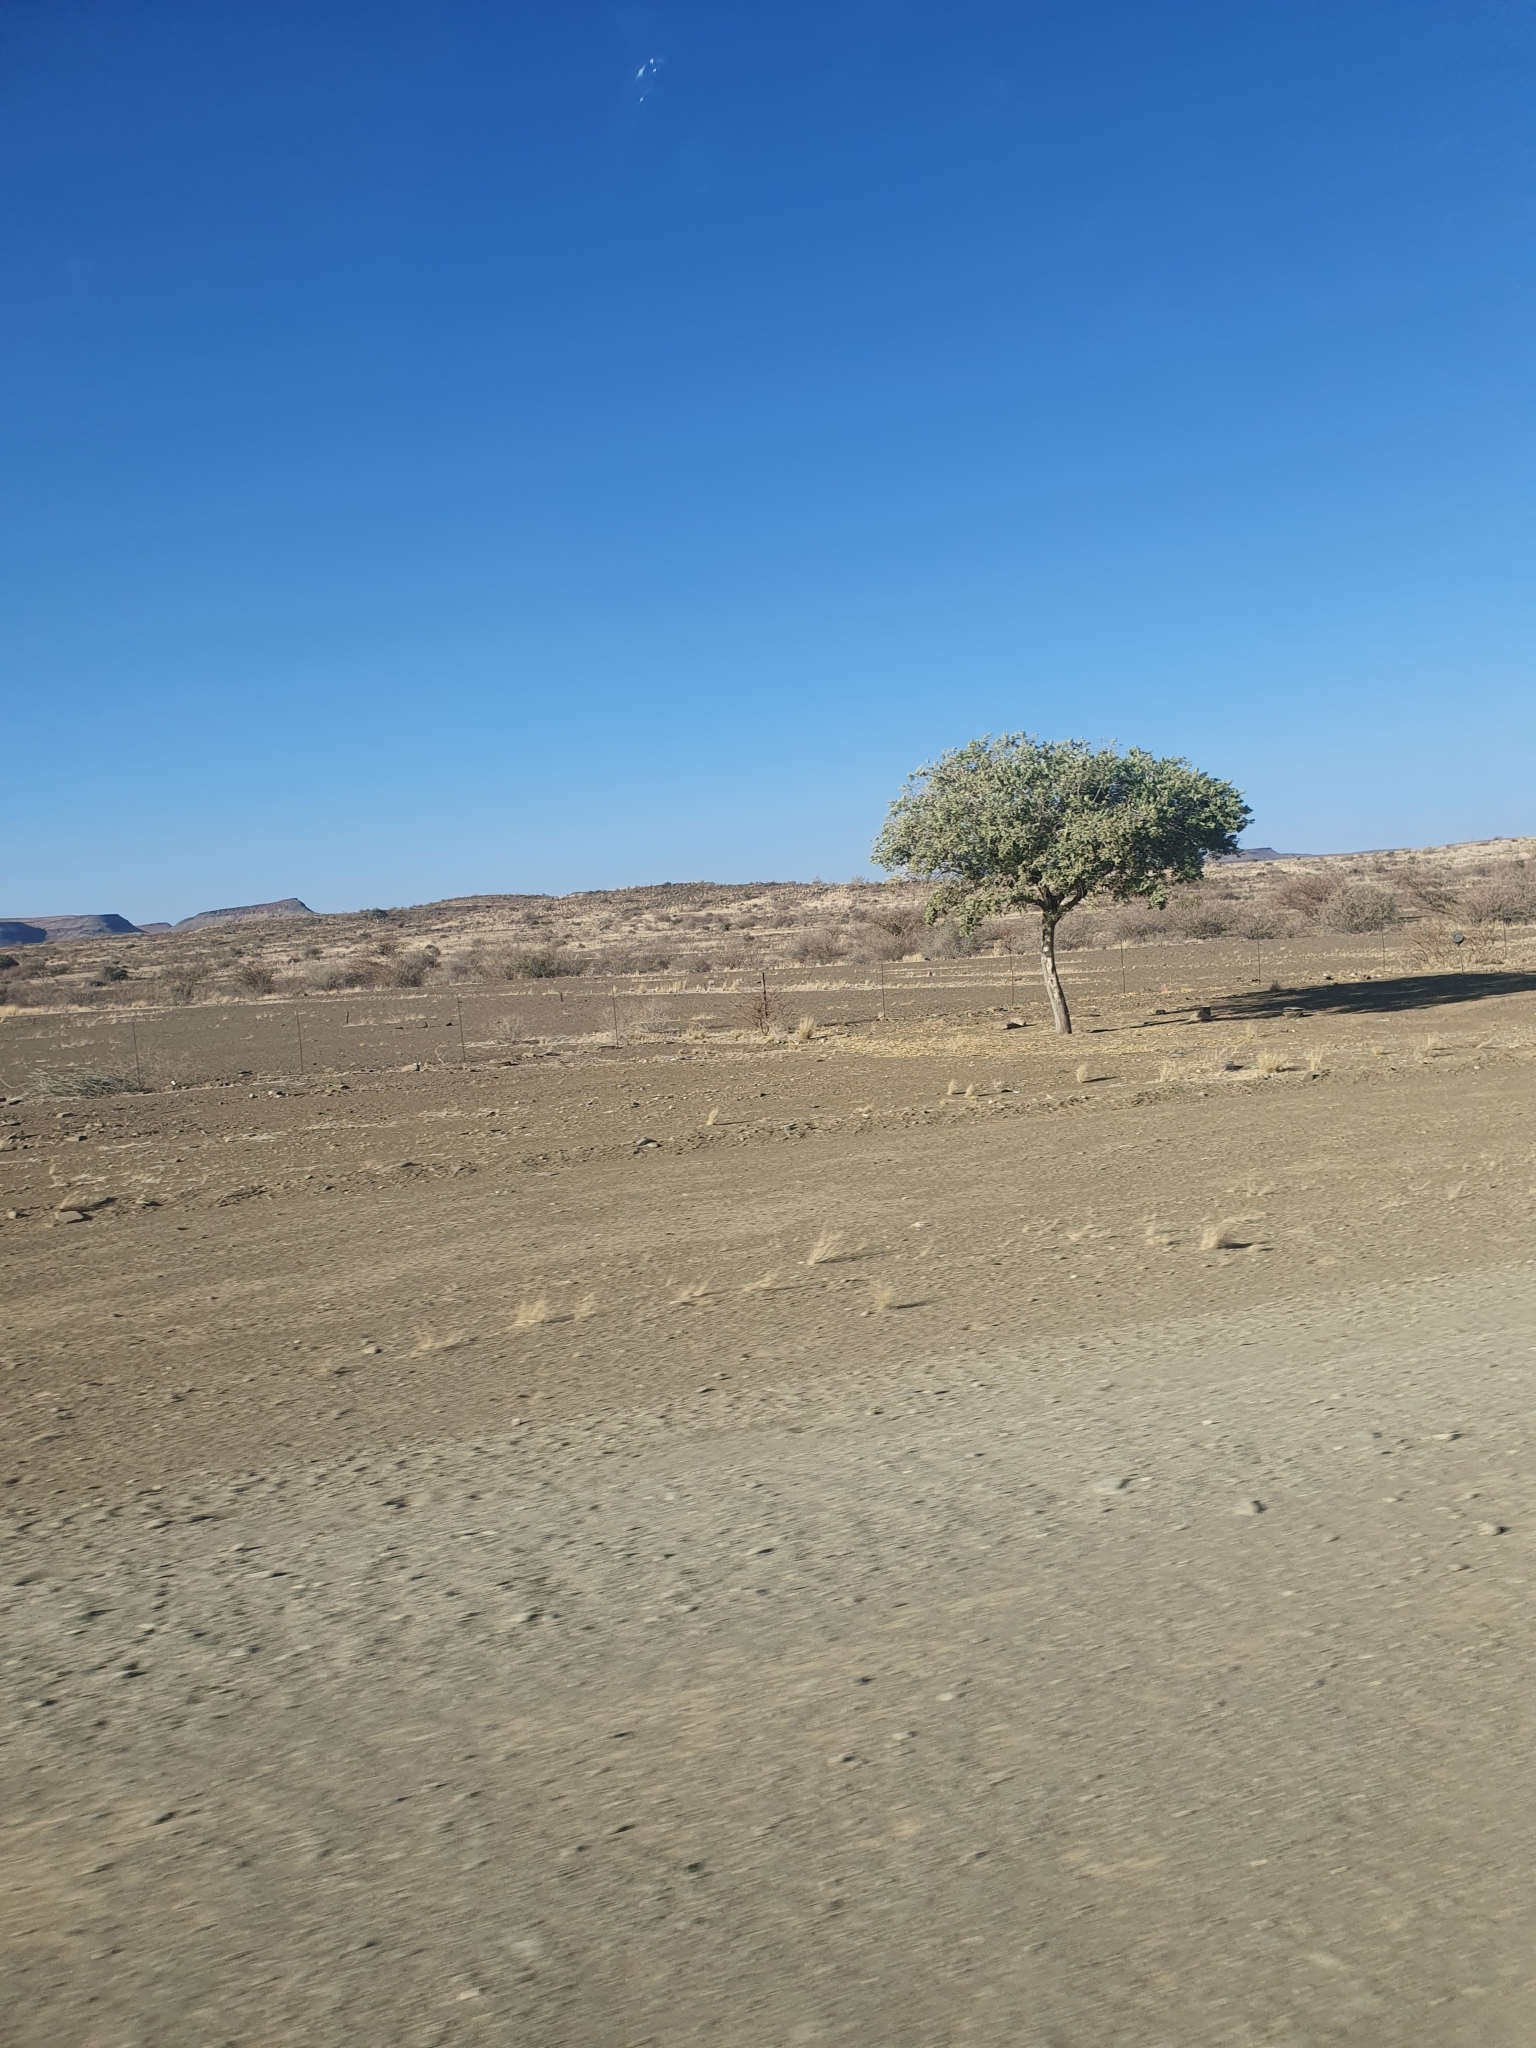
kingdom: Plantae
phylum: Tracheophyta
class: Magnoliopsida
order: Brassicales
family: Capparaceae
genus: Maerua
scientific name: Maerua schinzii
